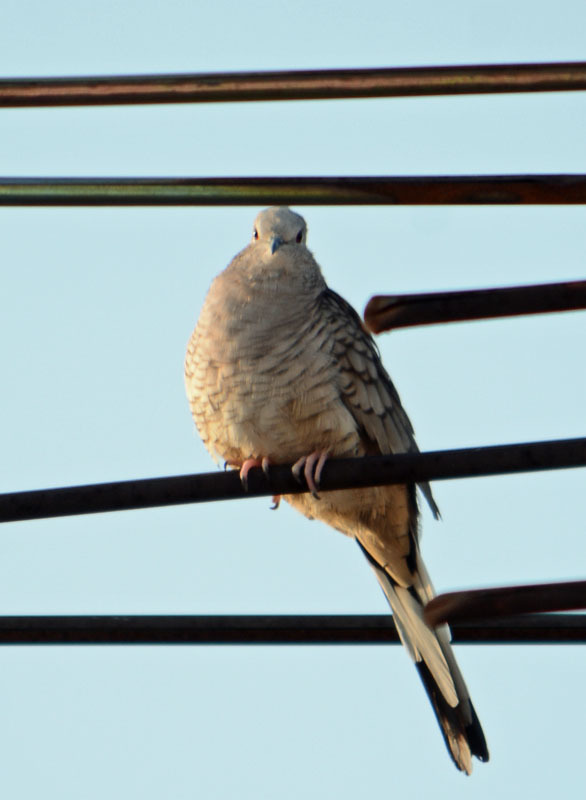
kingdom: Animalia
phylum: Chordata
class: Aves
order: Columbiformes
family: Columbidae
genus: Columbina
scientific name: Columbina inca
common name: Inca dove
